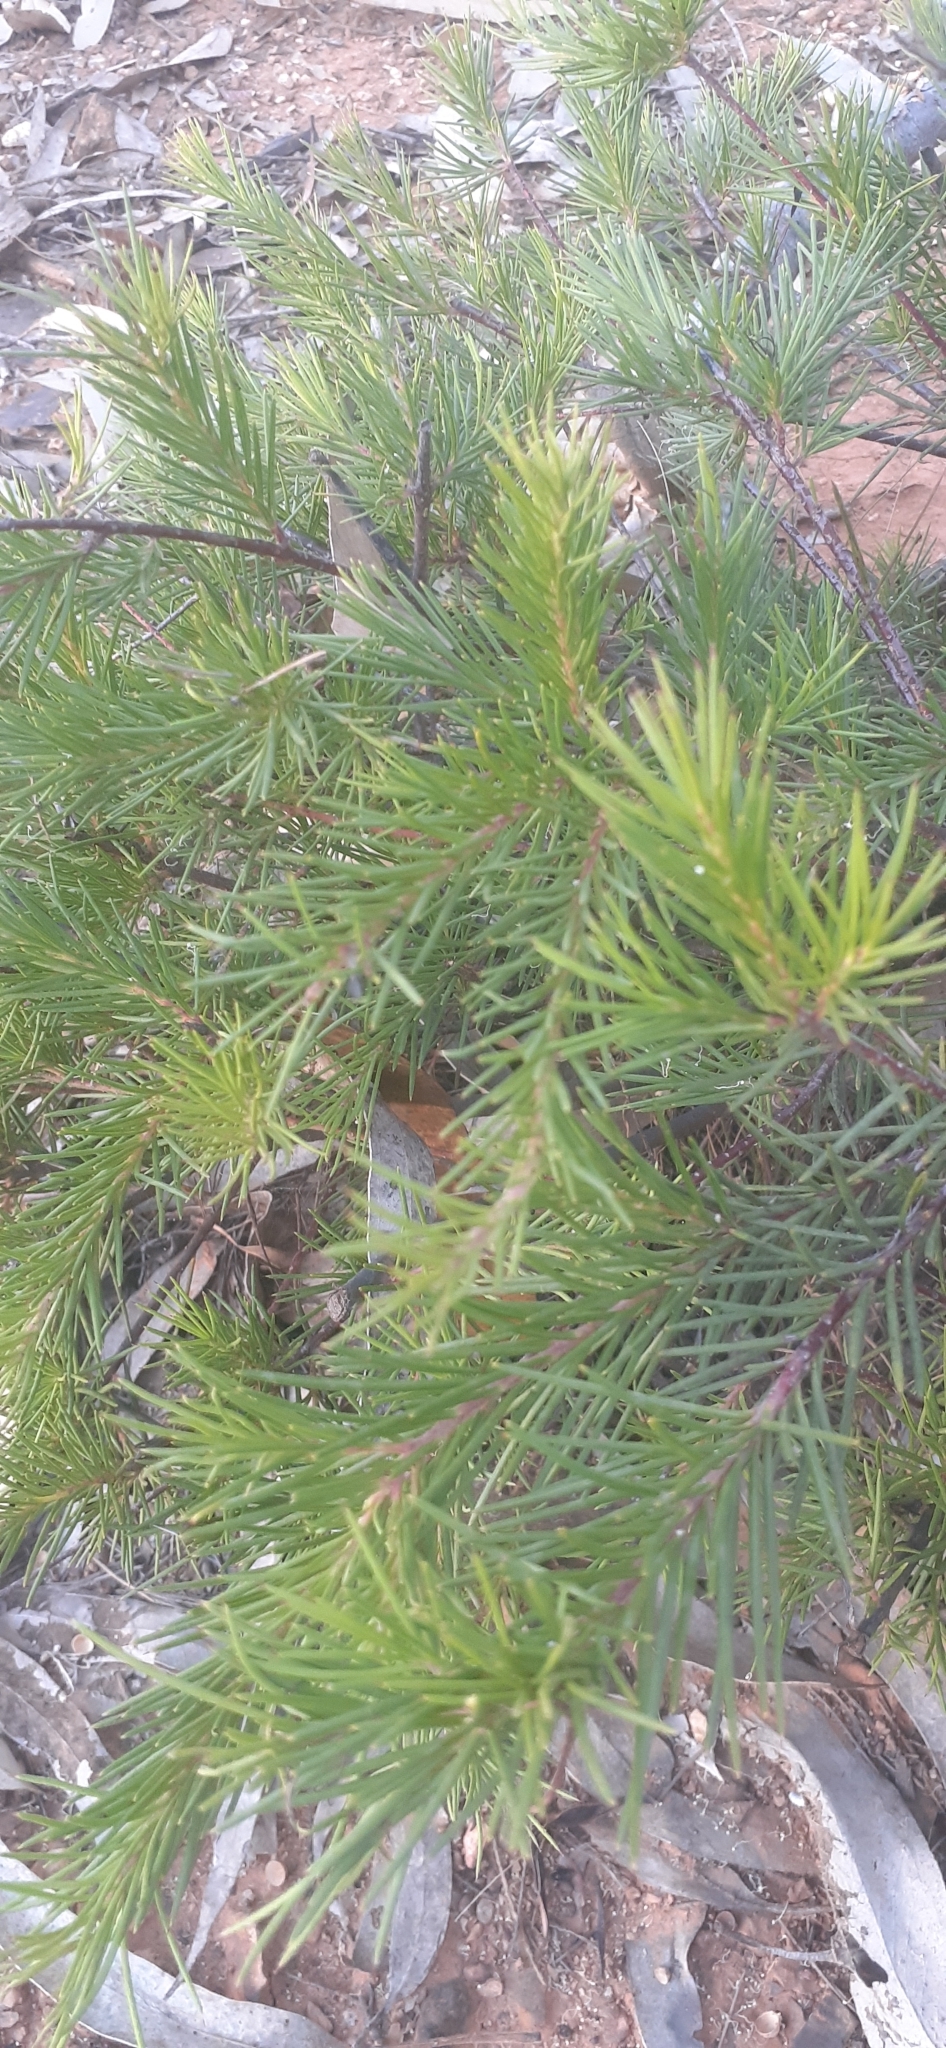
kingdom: Plantae
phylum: Tracheophyta
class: Magnoliopsida
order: Proteales
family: Proteaceae
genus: Grevillea
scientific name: Grevillea rosmarinifolia
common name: Rosemary grevillea
